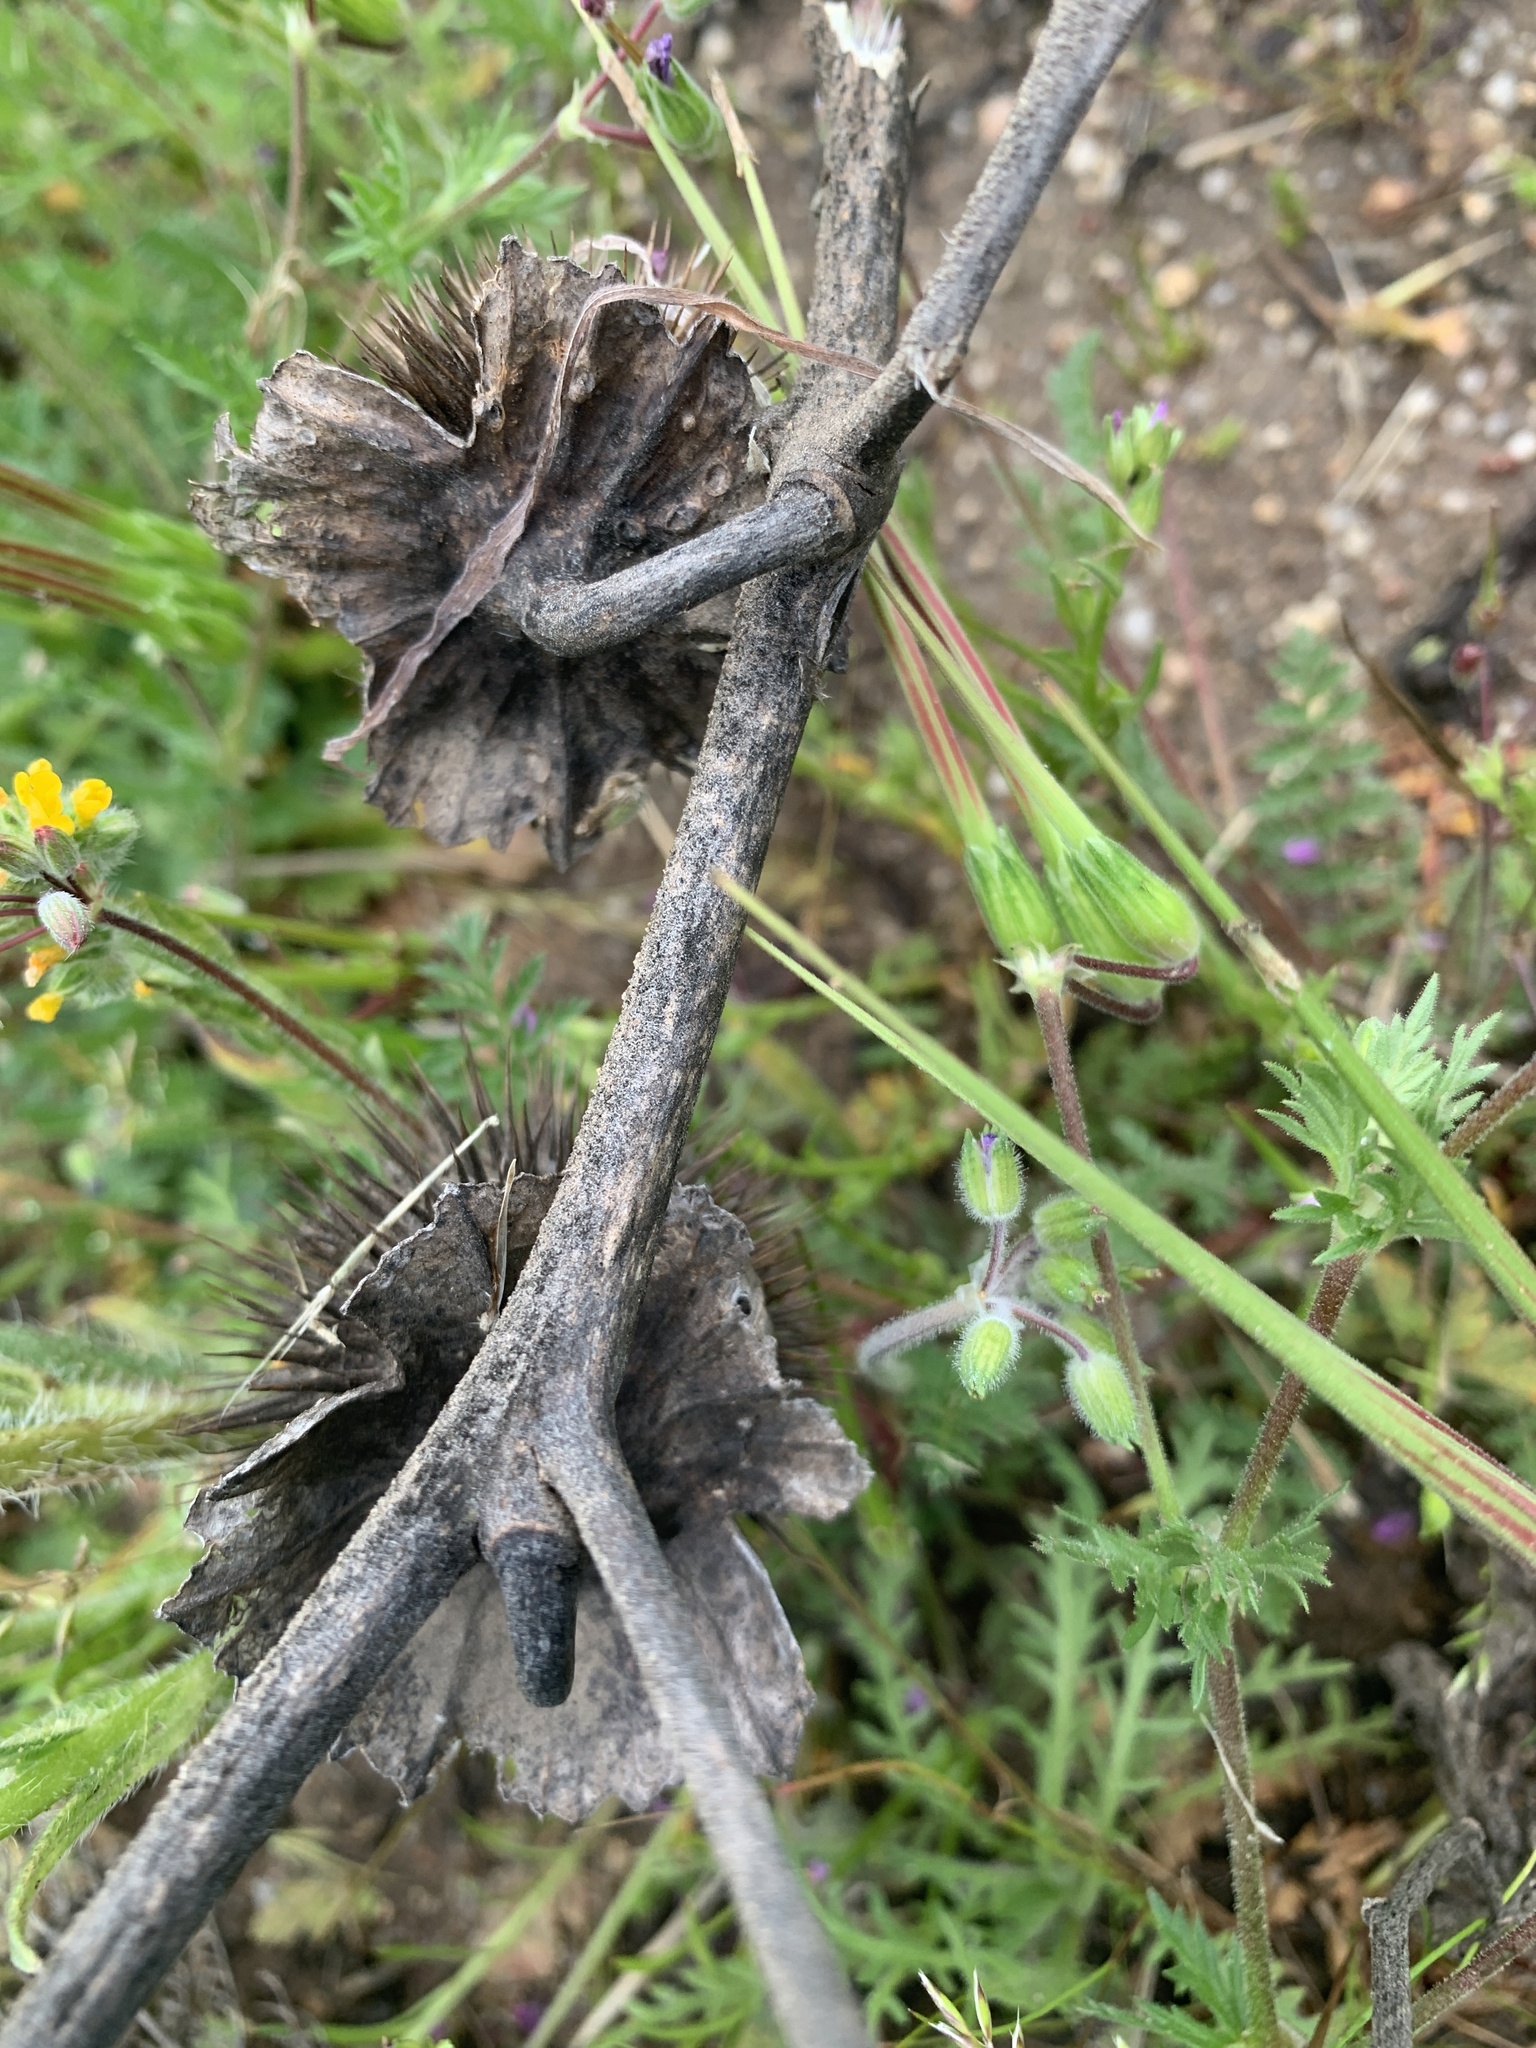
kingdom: Plantae
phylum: Tracheophyta
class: Magnoliopsida
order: Solanales
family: Solanaceae
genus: Datura
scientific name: Datura wrightii
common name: Sacred thorn-apple
